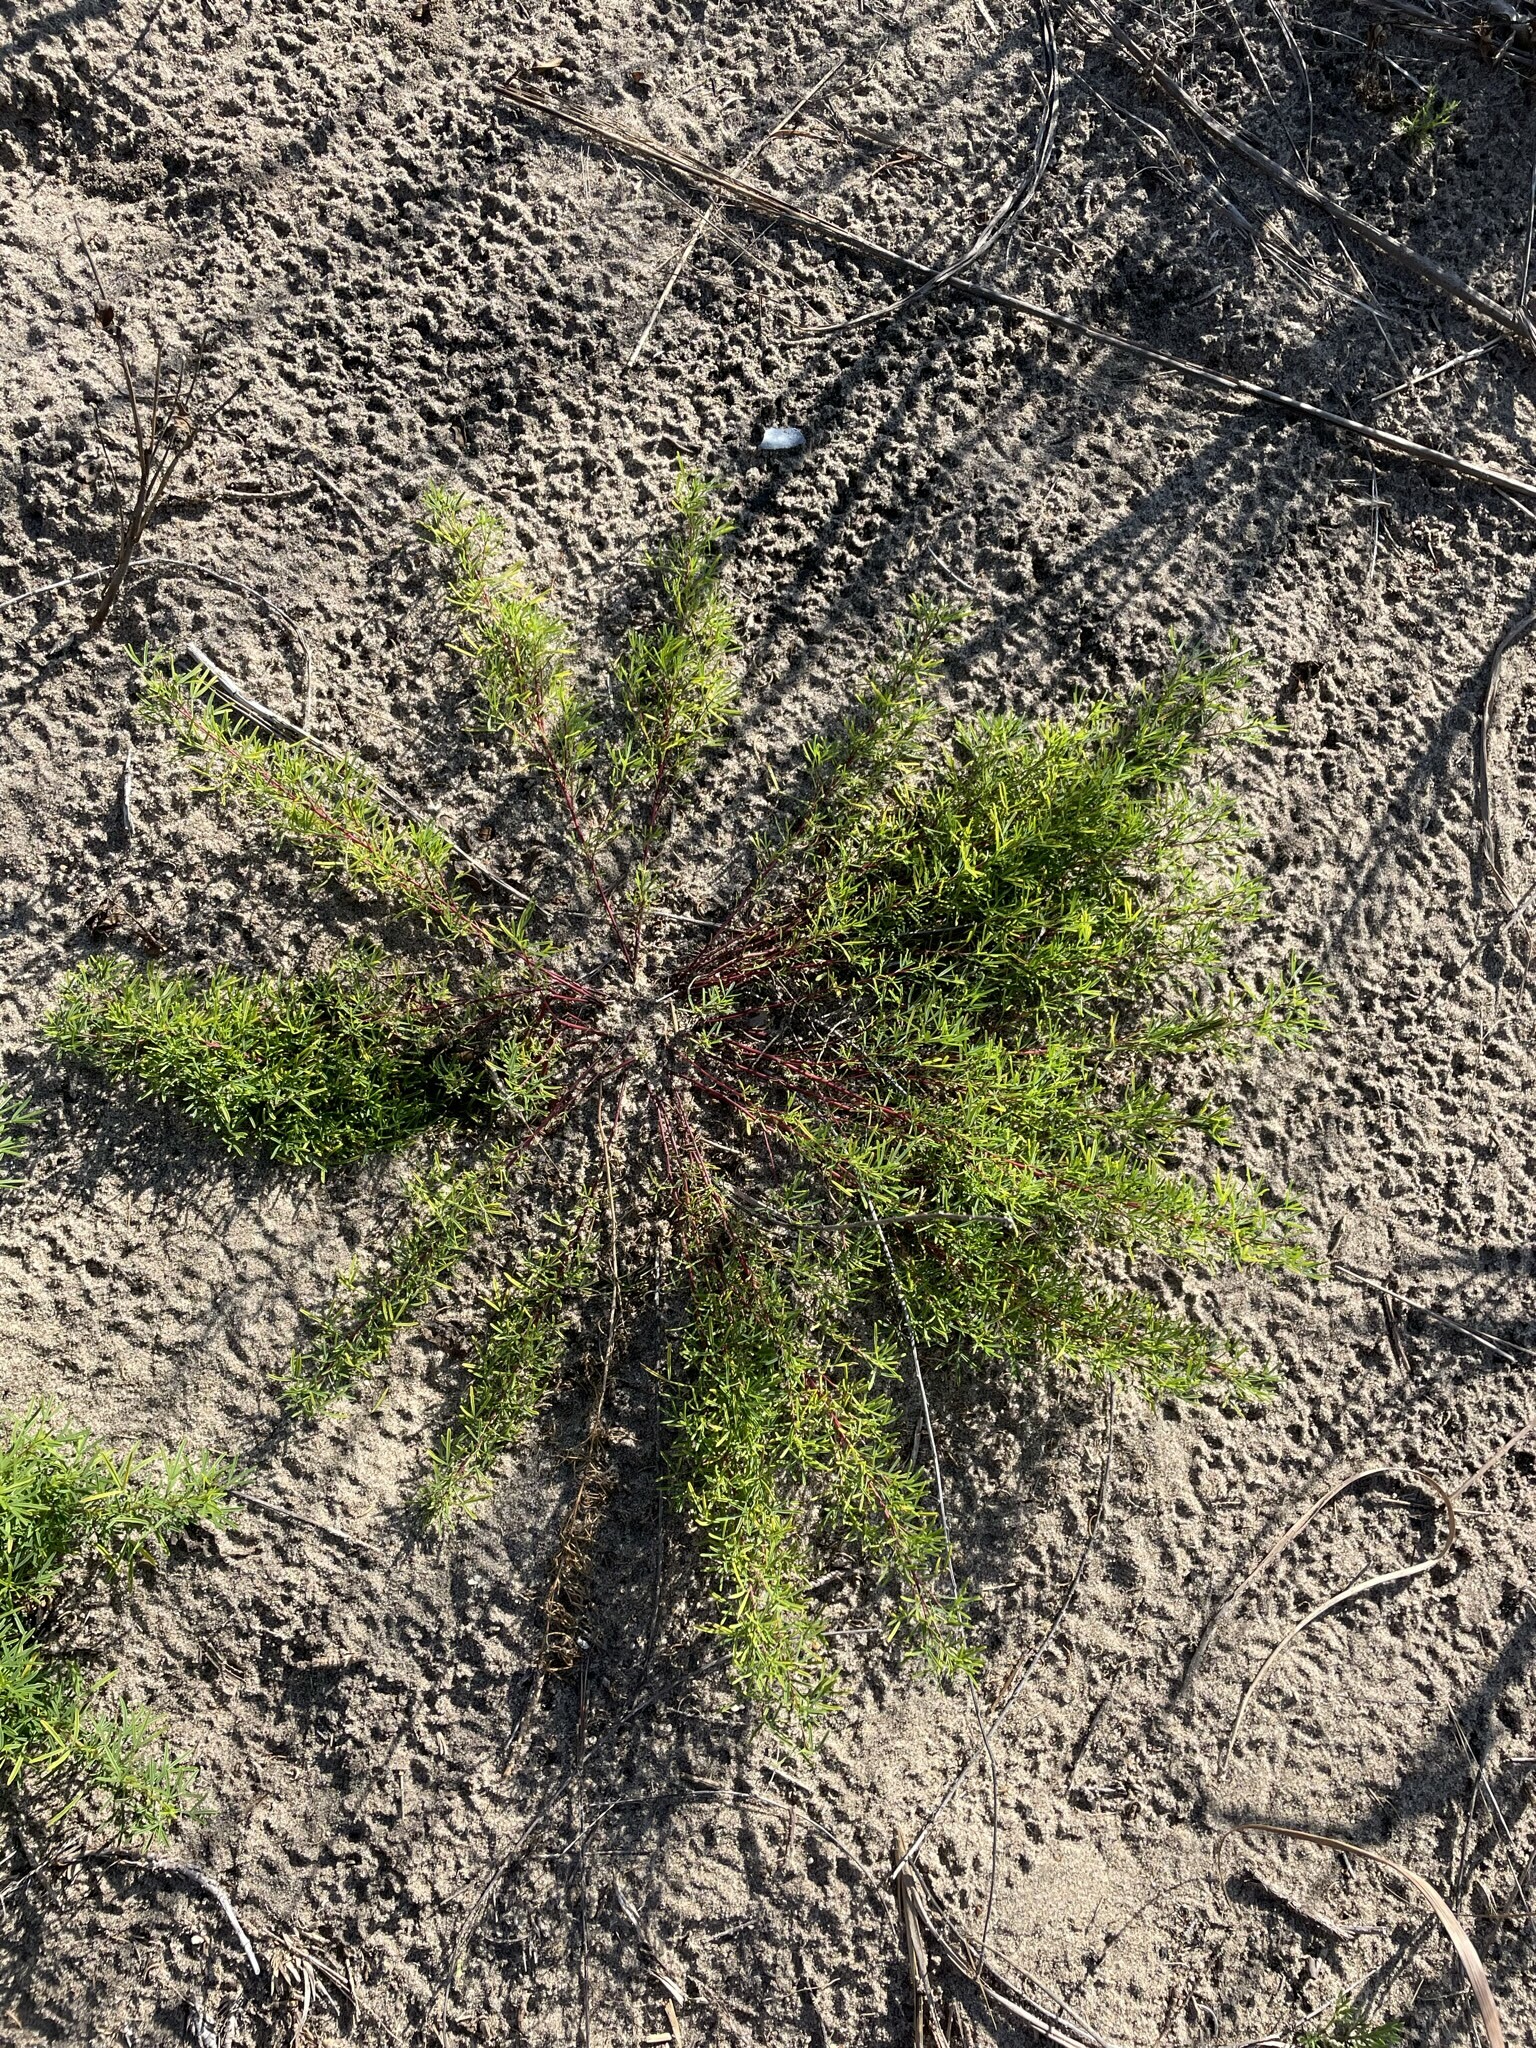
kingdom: Plantae
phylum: Tracheophyta
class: Magnoliopsida
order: Fabales
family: Fabaceae
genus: Dalea
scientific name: Dalea purpurea
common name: Purple prairie-clover
